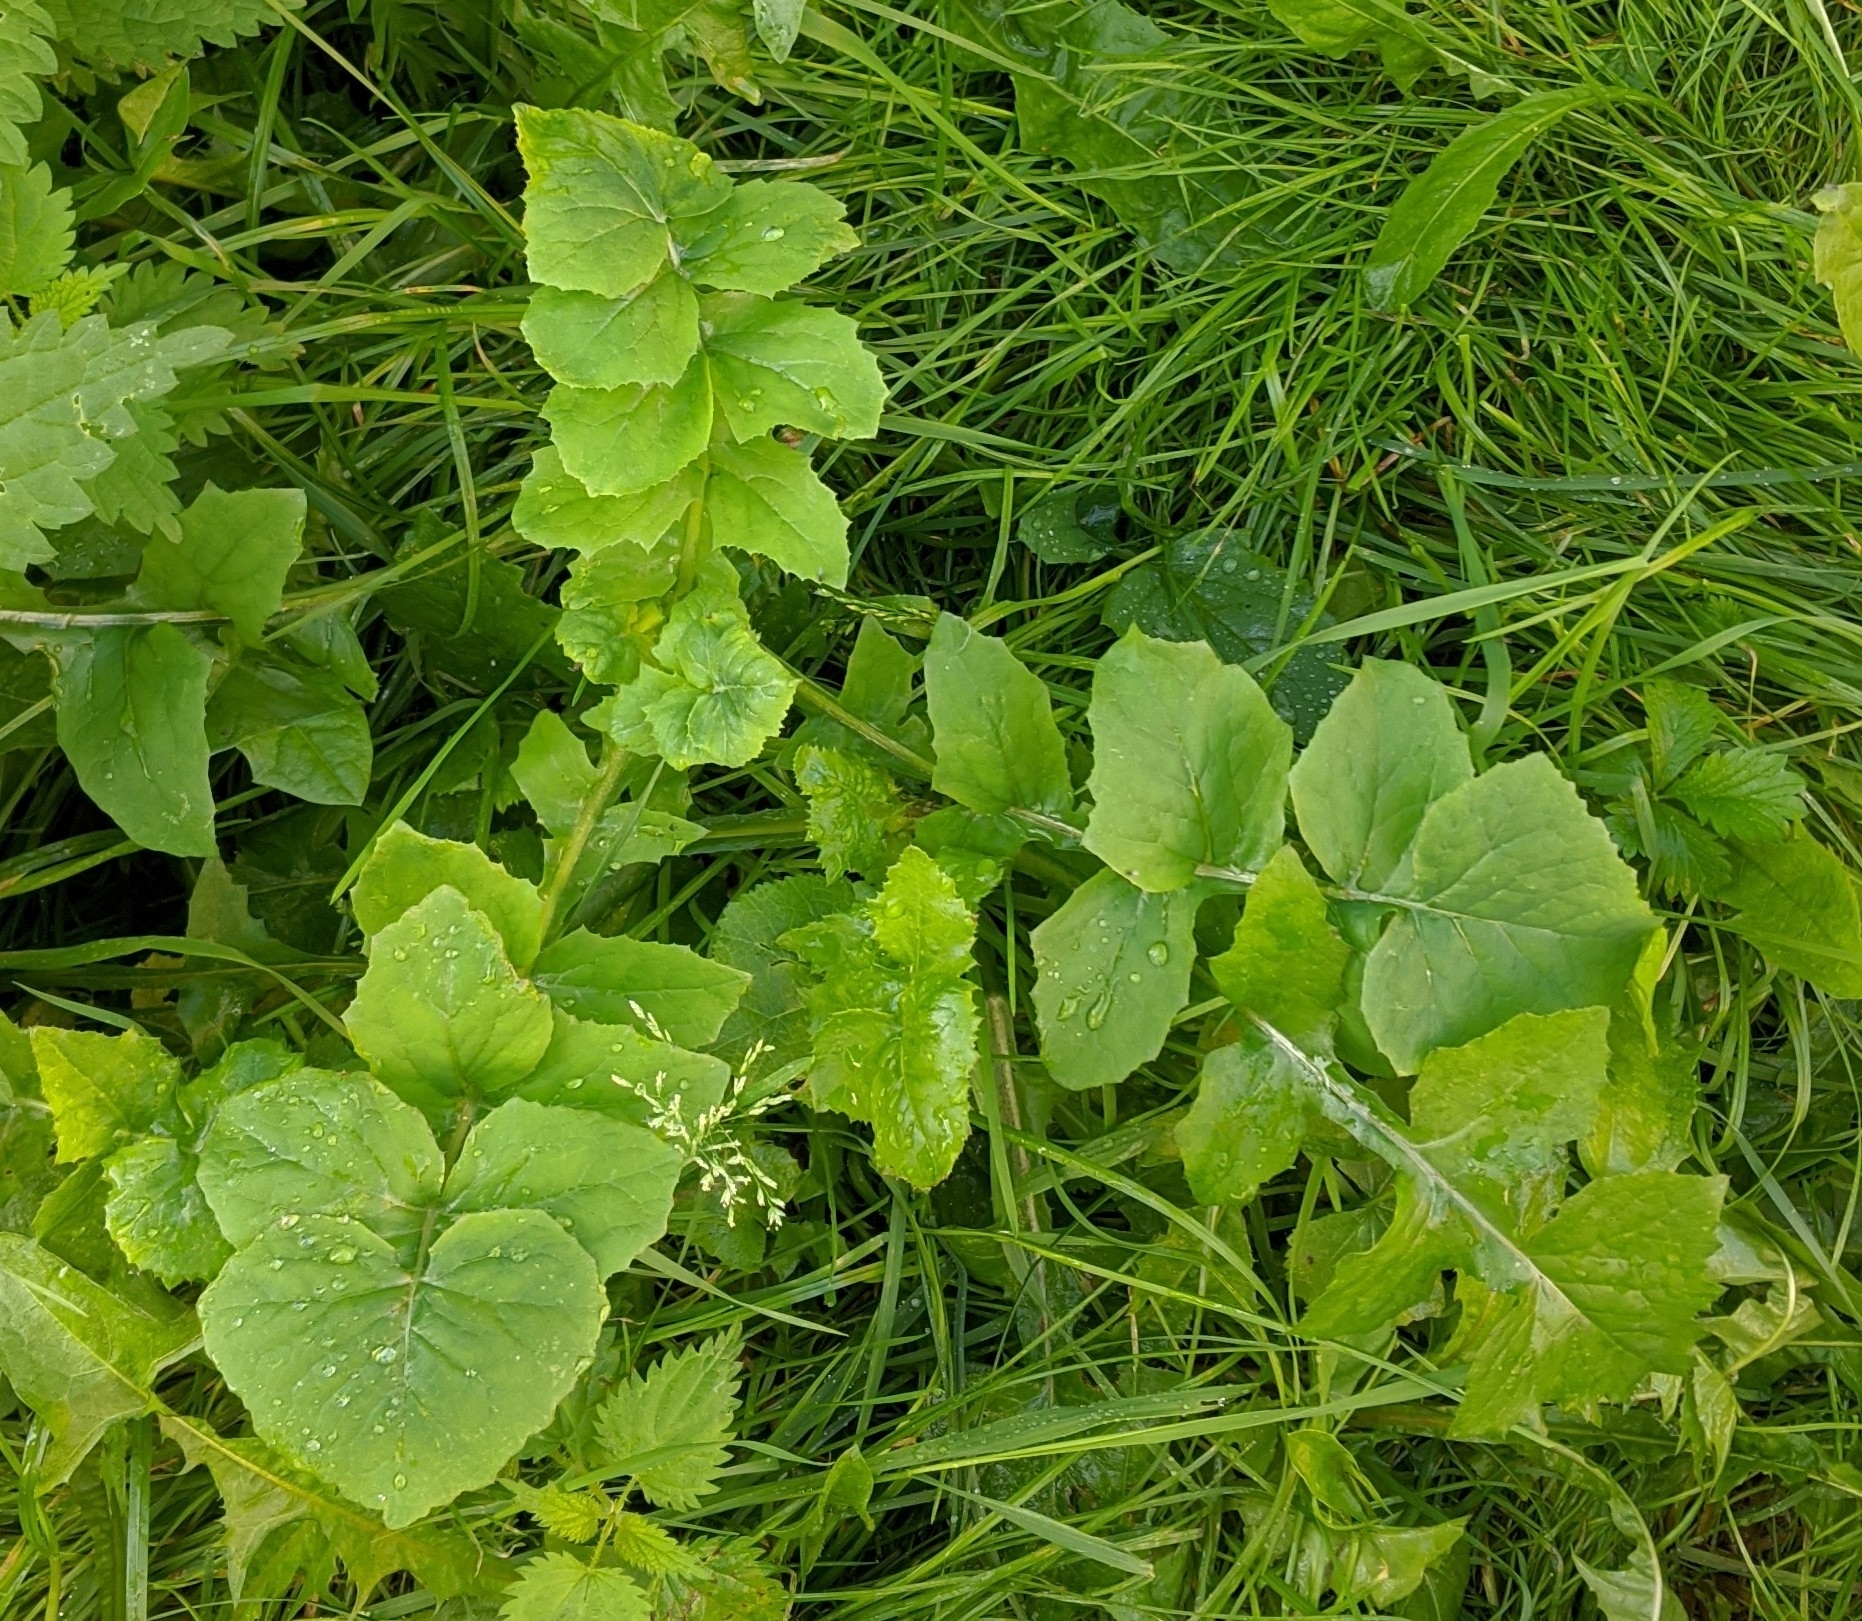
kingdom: Plantae
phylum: Tracheophyta
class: Magnoliopsida
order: Asterales
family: Asteraceae
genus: Sonchus
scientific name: Sonchus oleraceus
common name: Common sowthistle
